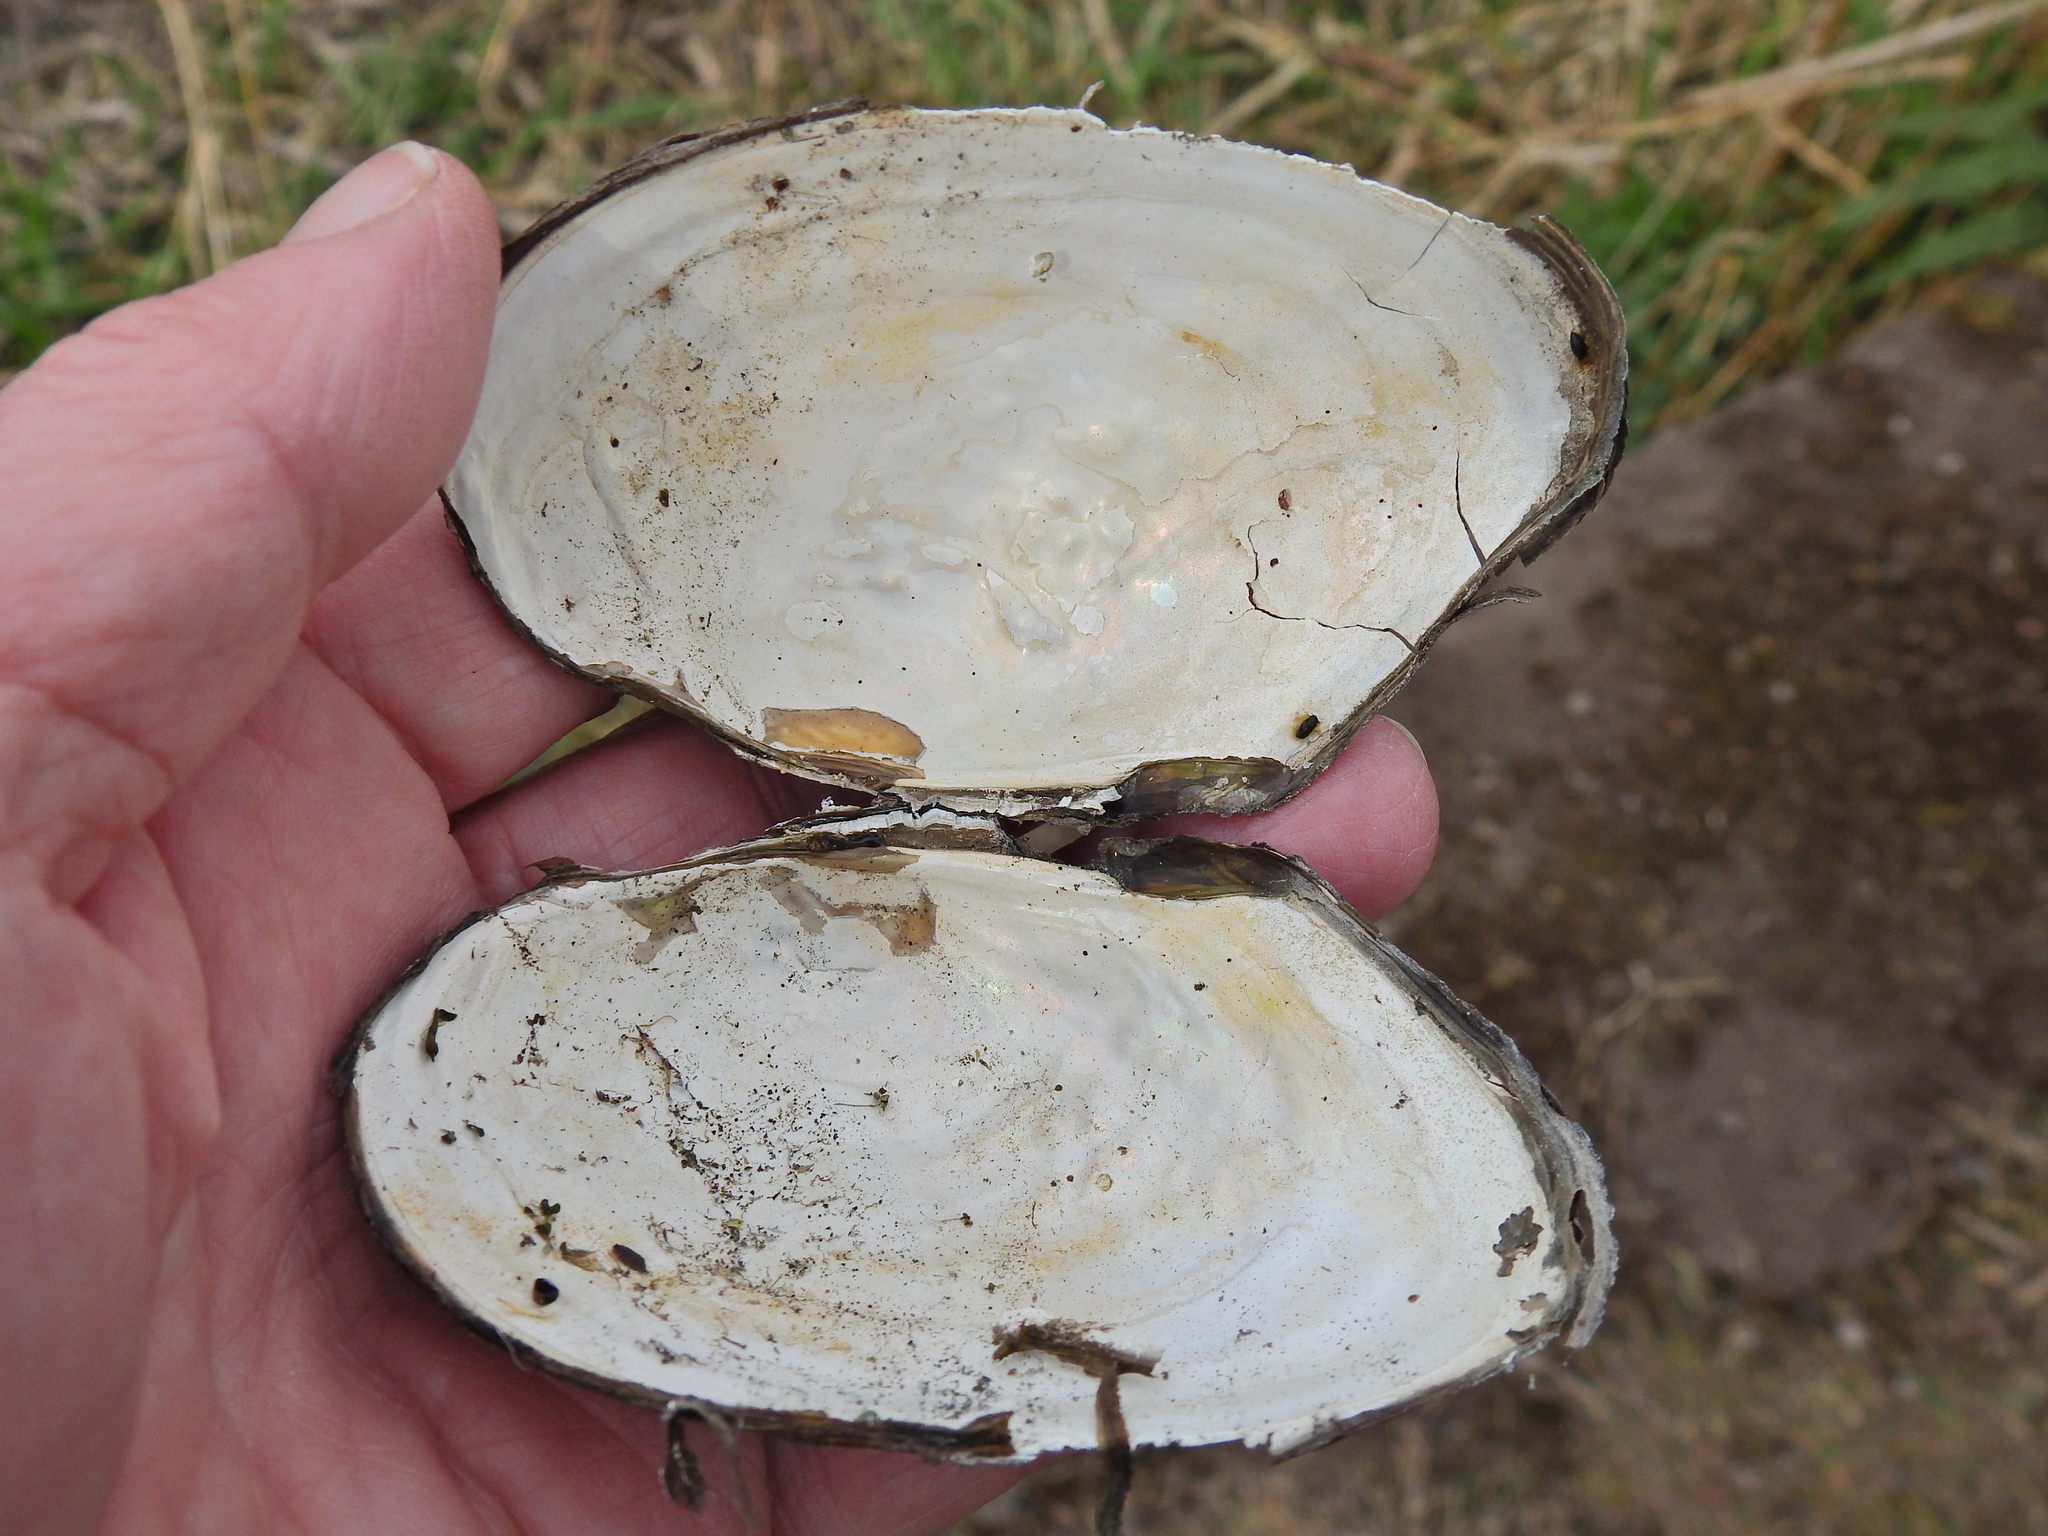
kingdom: Animalia
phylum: Mollusca
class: Bivalvia
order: Unionida
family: Unionidae
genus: Anodonta
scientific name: Anodonta anatina
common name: Duck mussel
